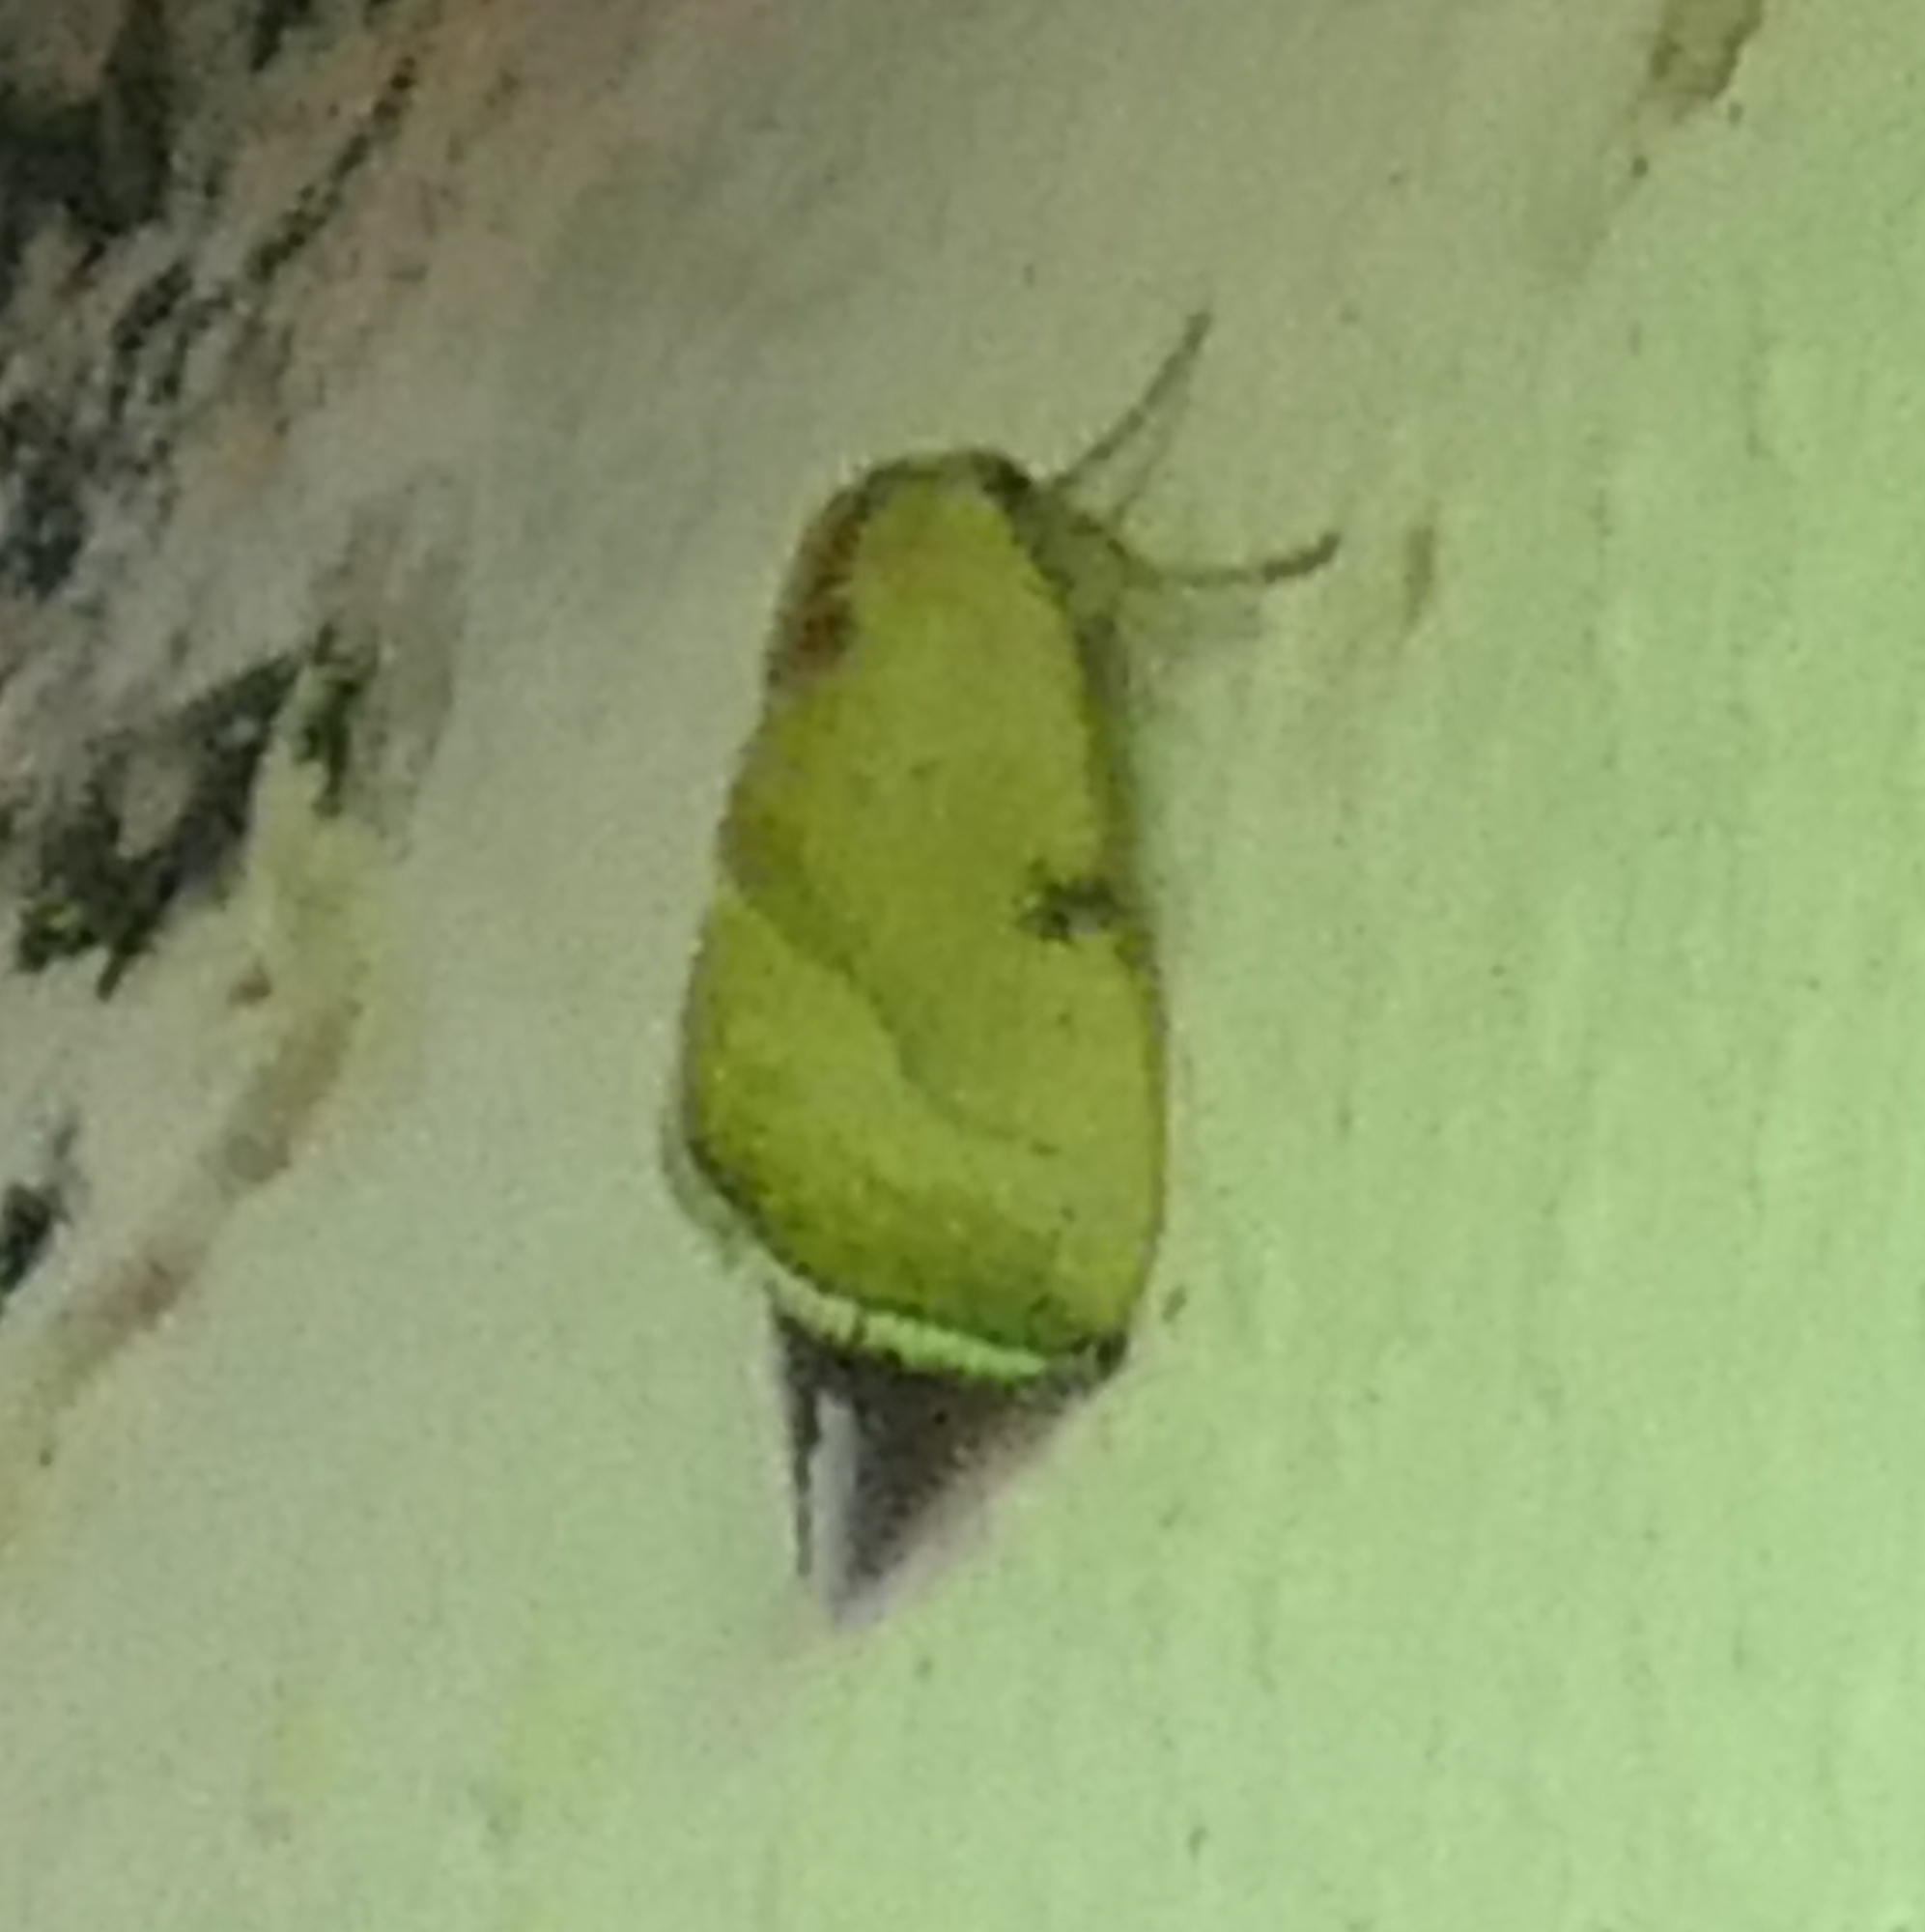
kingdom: Animalia
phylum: Arthropoda
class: Insecta
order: Lepidoptera
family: Noctuidae
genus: Galgula
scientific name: Galgula partita
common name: Wedgeling
